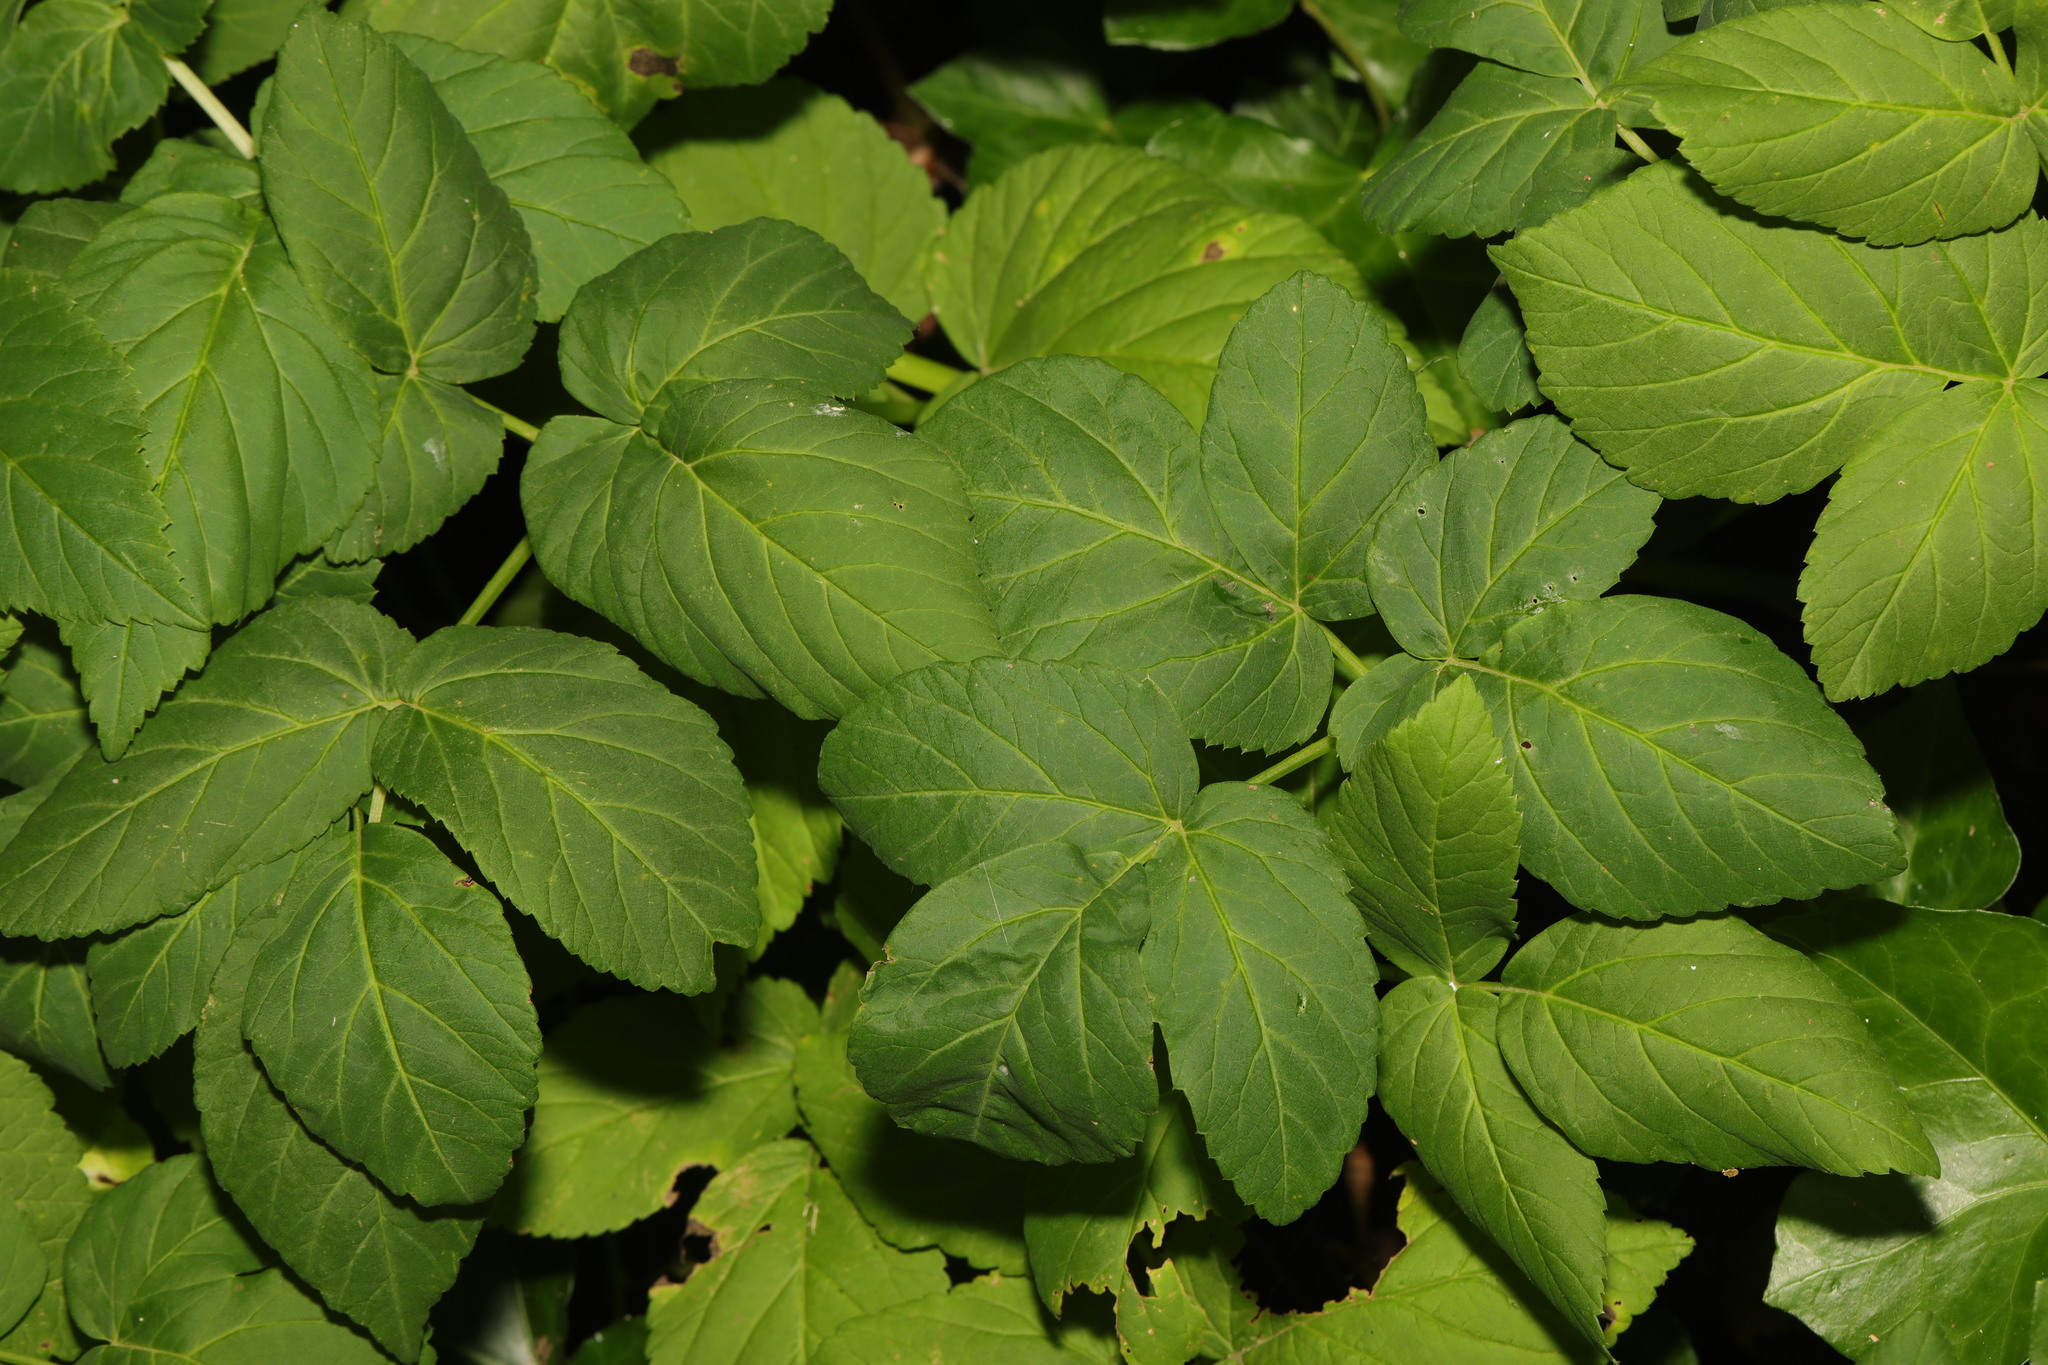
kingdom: Plantae
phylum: Tracheophyta
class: Magnoliopsida
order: Apiales
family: Apiaceae
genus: Aegopodium
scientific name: Aegopodium podagraria
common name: Ground-elder
